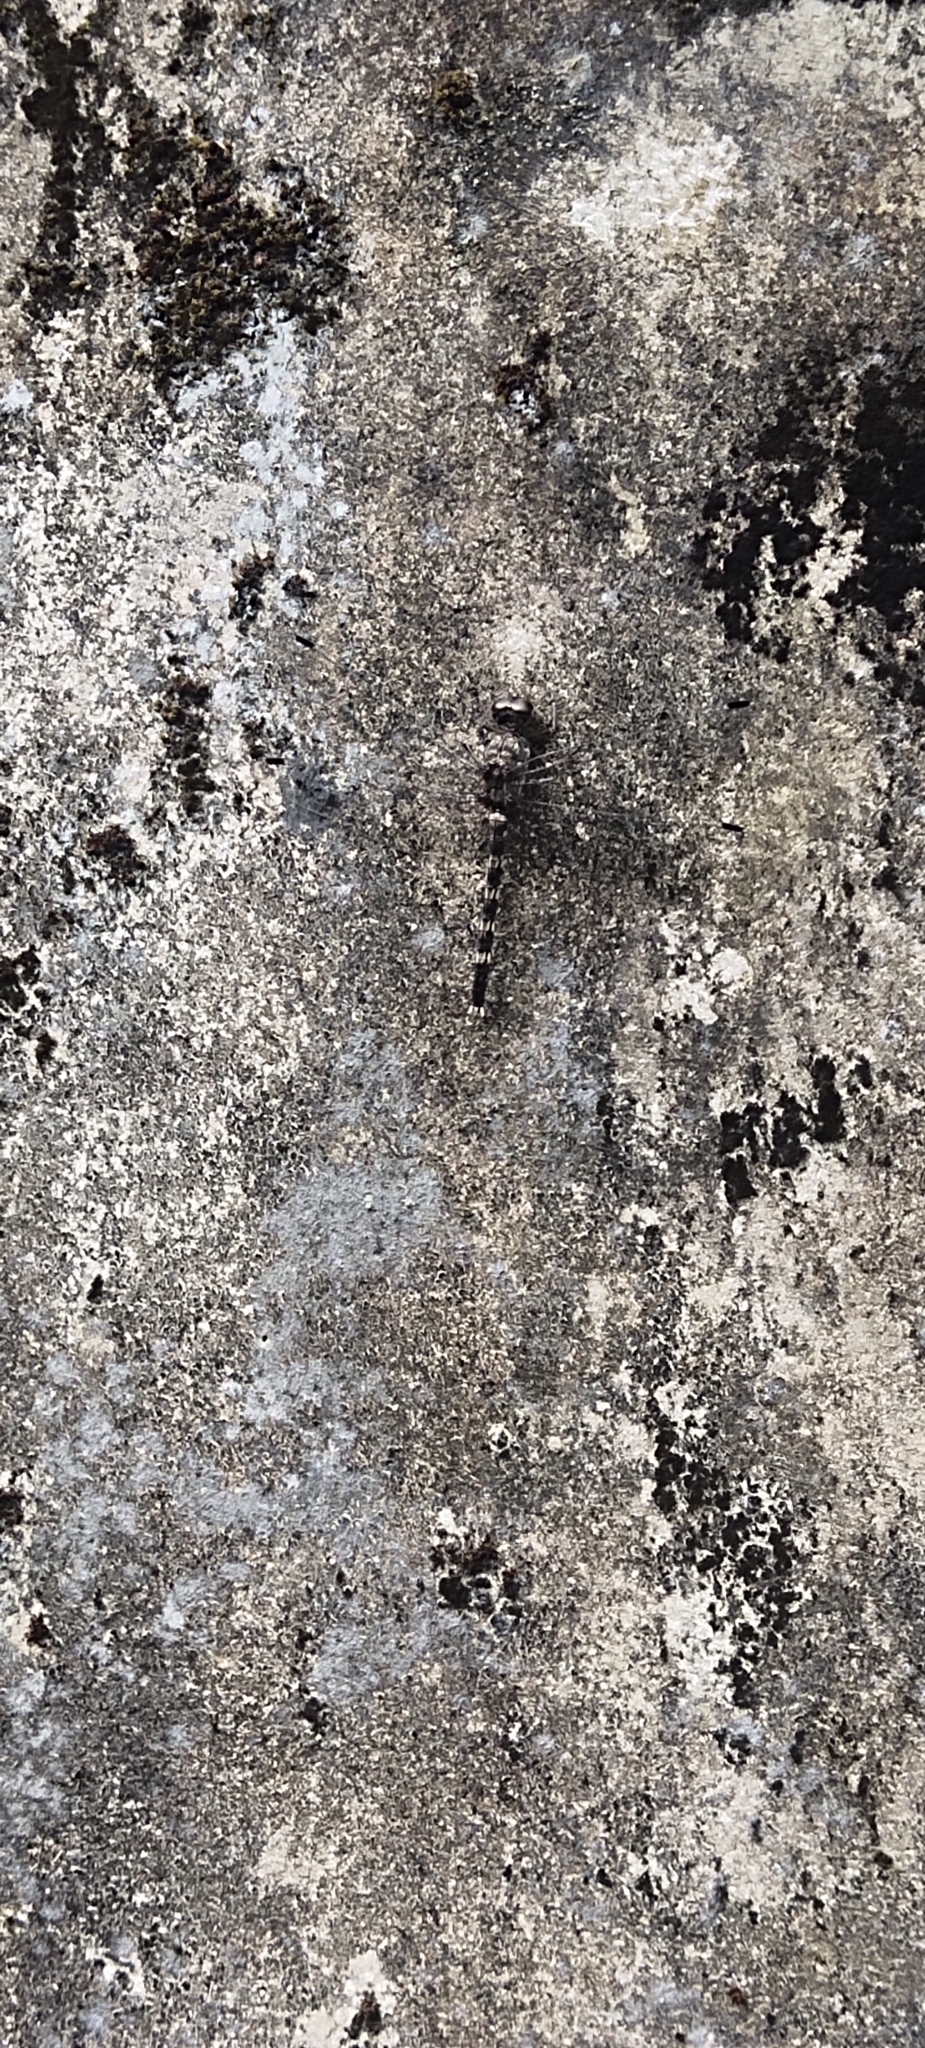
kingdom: Animalia
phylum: Arthropoda
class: Insecta
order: Odonata
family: Libellulidae
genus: Bradinopyga
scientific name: Bradinopyga geminata
